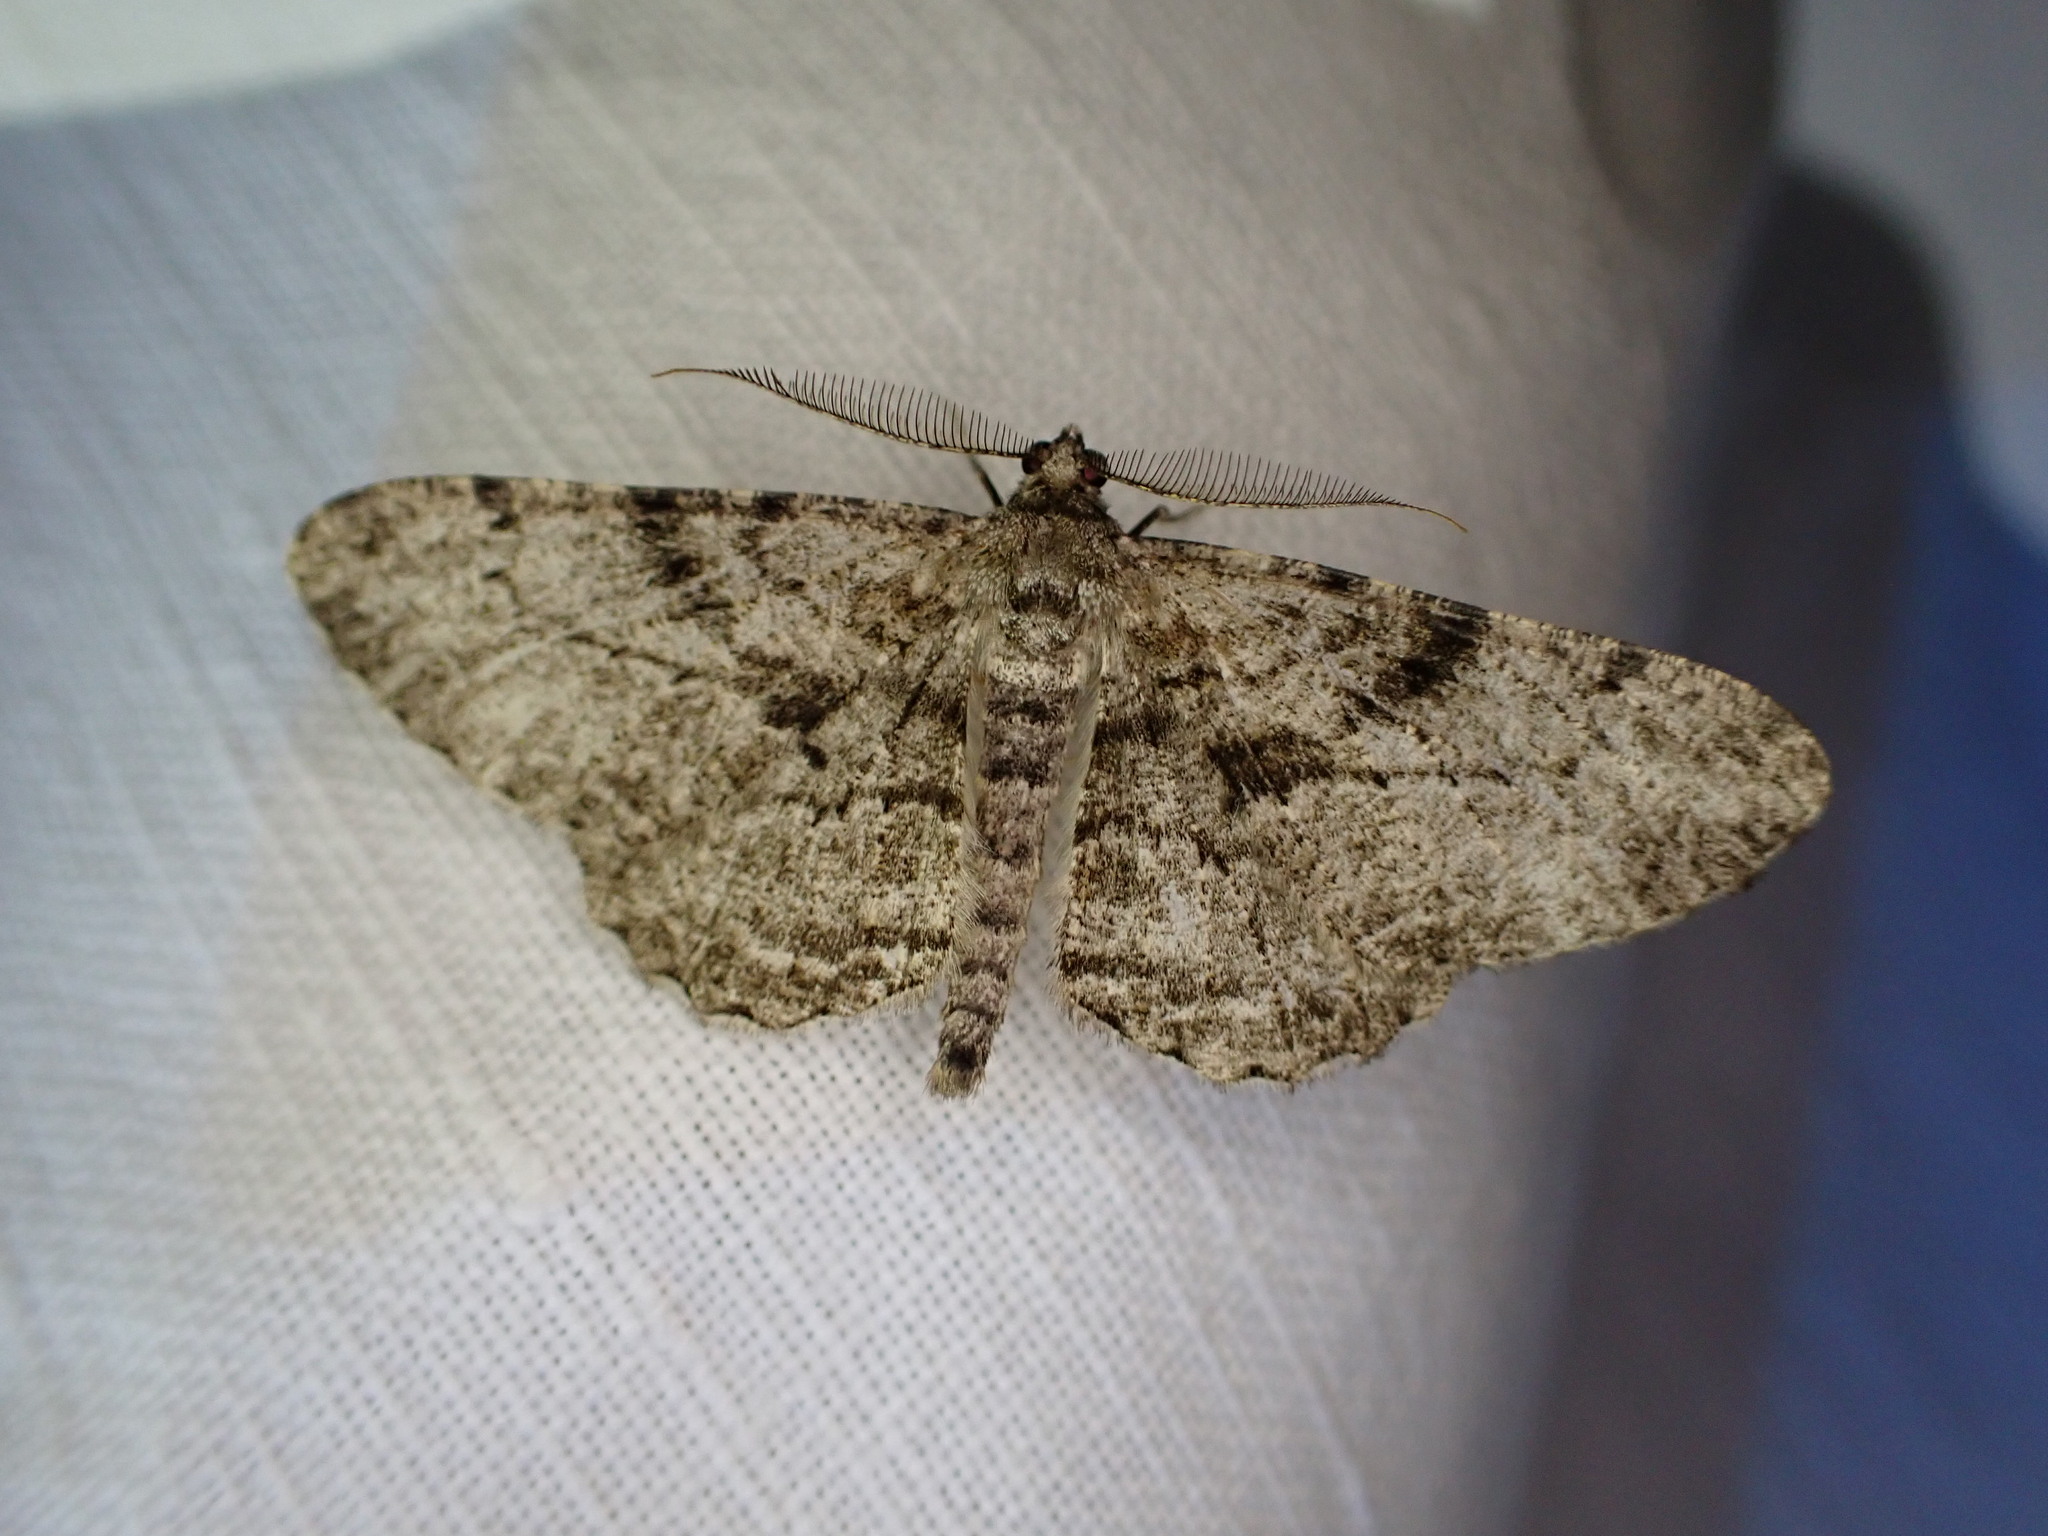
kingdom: Animalia
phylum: Arthropoda
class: Insecta
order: Lepidoptera
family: Geometridae
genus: Peribatodes
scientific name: Peribatodes rhomboidaria
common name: Willow beauty
